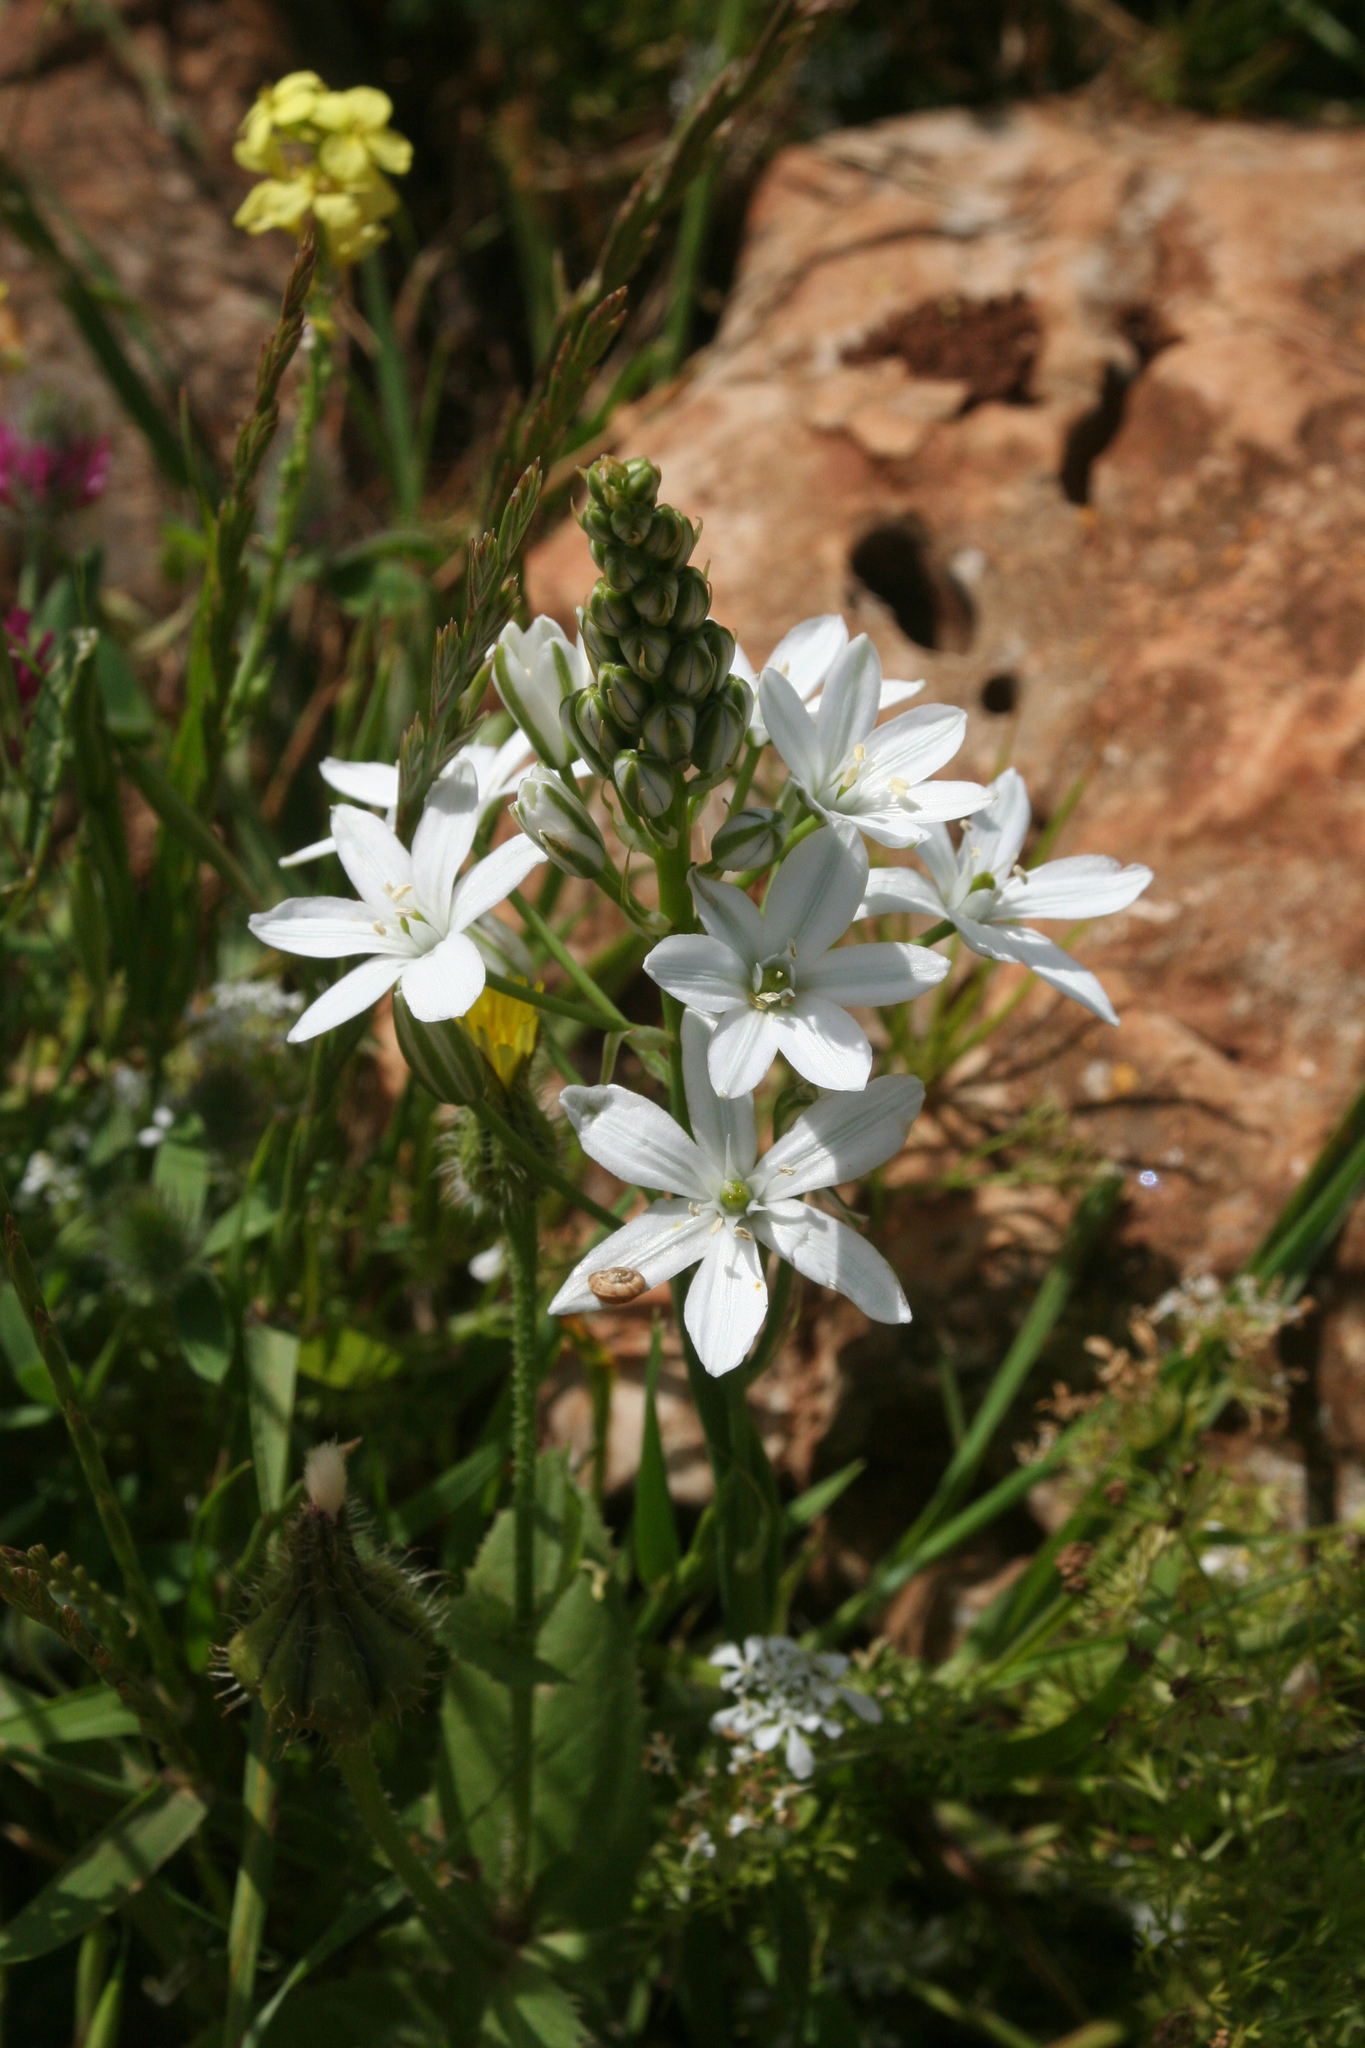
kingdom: Plantae
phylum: Tracheophyta
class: Liliopsida
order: Asparagales
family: Asparagaceae
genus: Ornithogalum
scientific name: Ornithogalum narbonense
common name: Bath-asparagus
